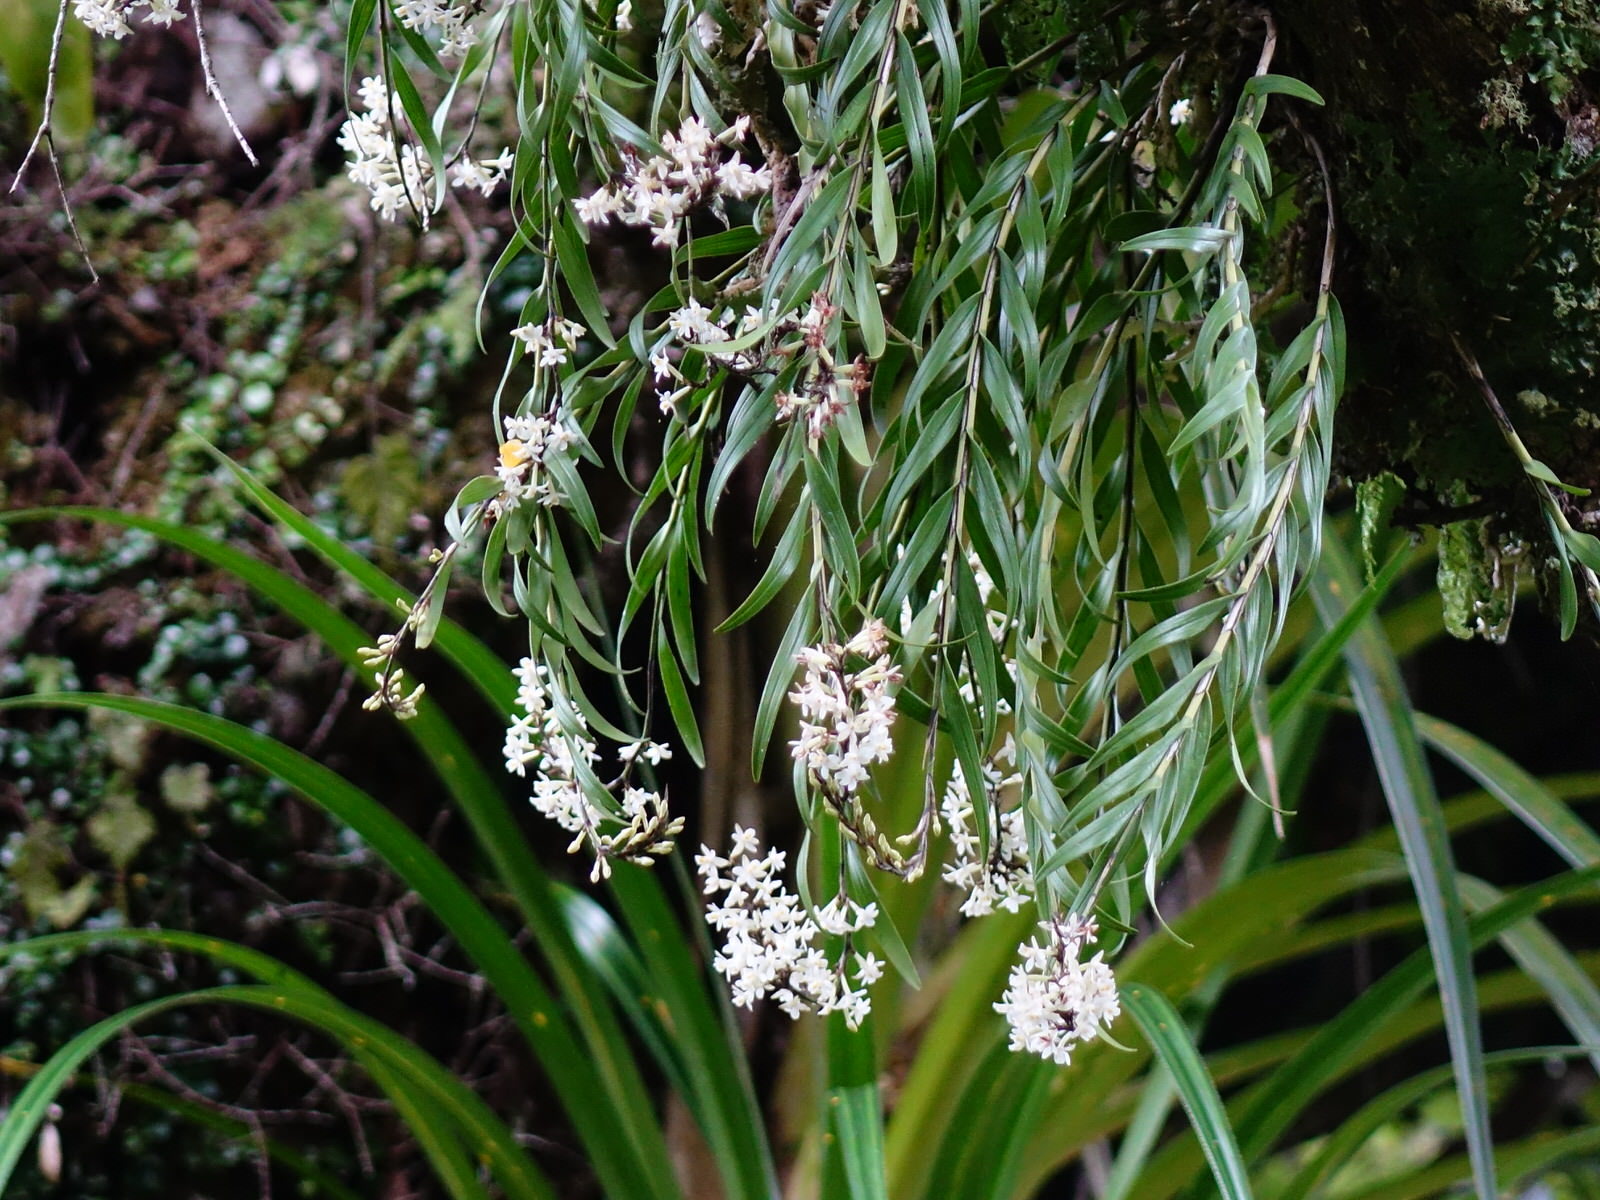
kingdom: Plantae
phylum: Tracheophyta
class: Liliopsida
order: Asparagales
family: Orchidaceae
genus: Earina
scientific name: Earina autumnalis
